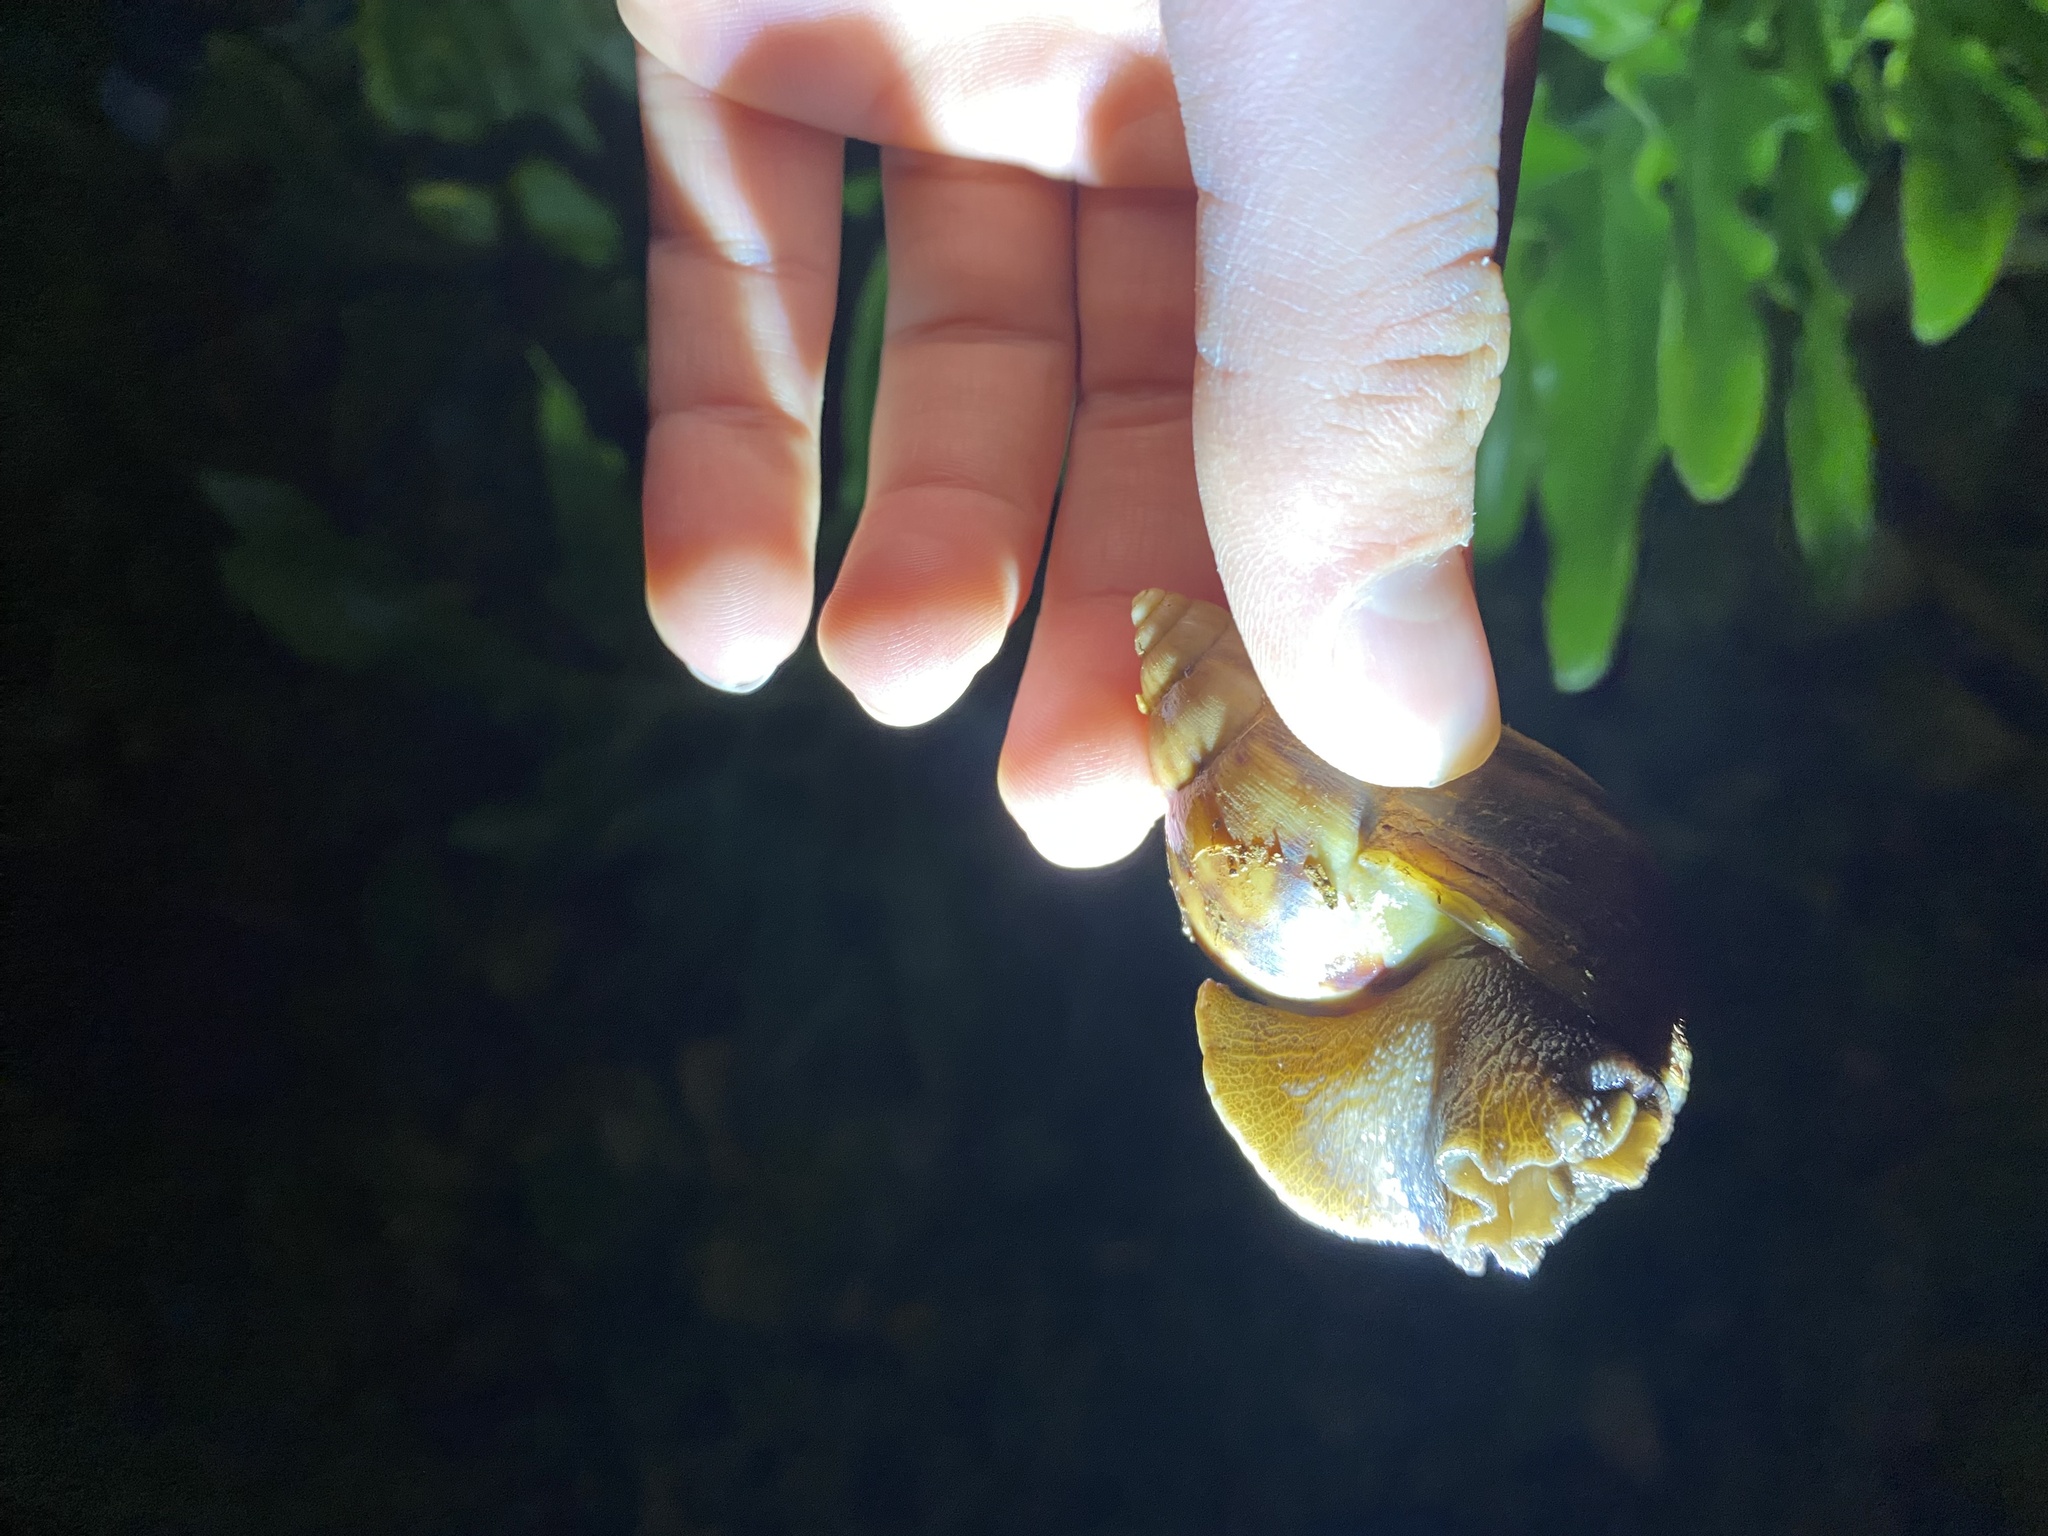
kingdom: Animalia
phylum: Mollusca
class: Gastropoda
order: Stylommatophora
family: Achatinidae
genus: Lissachatina
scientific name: Lissachatina fulica
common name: Giant african snail
